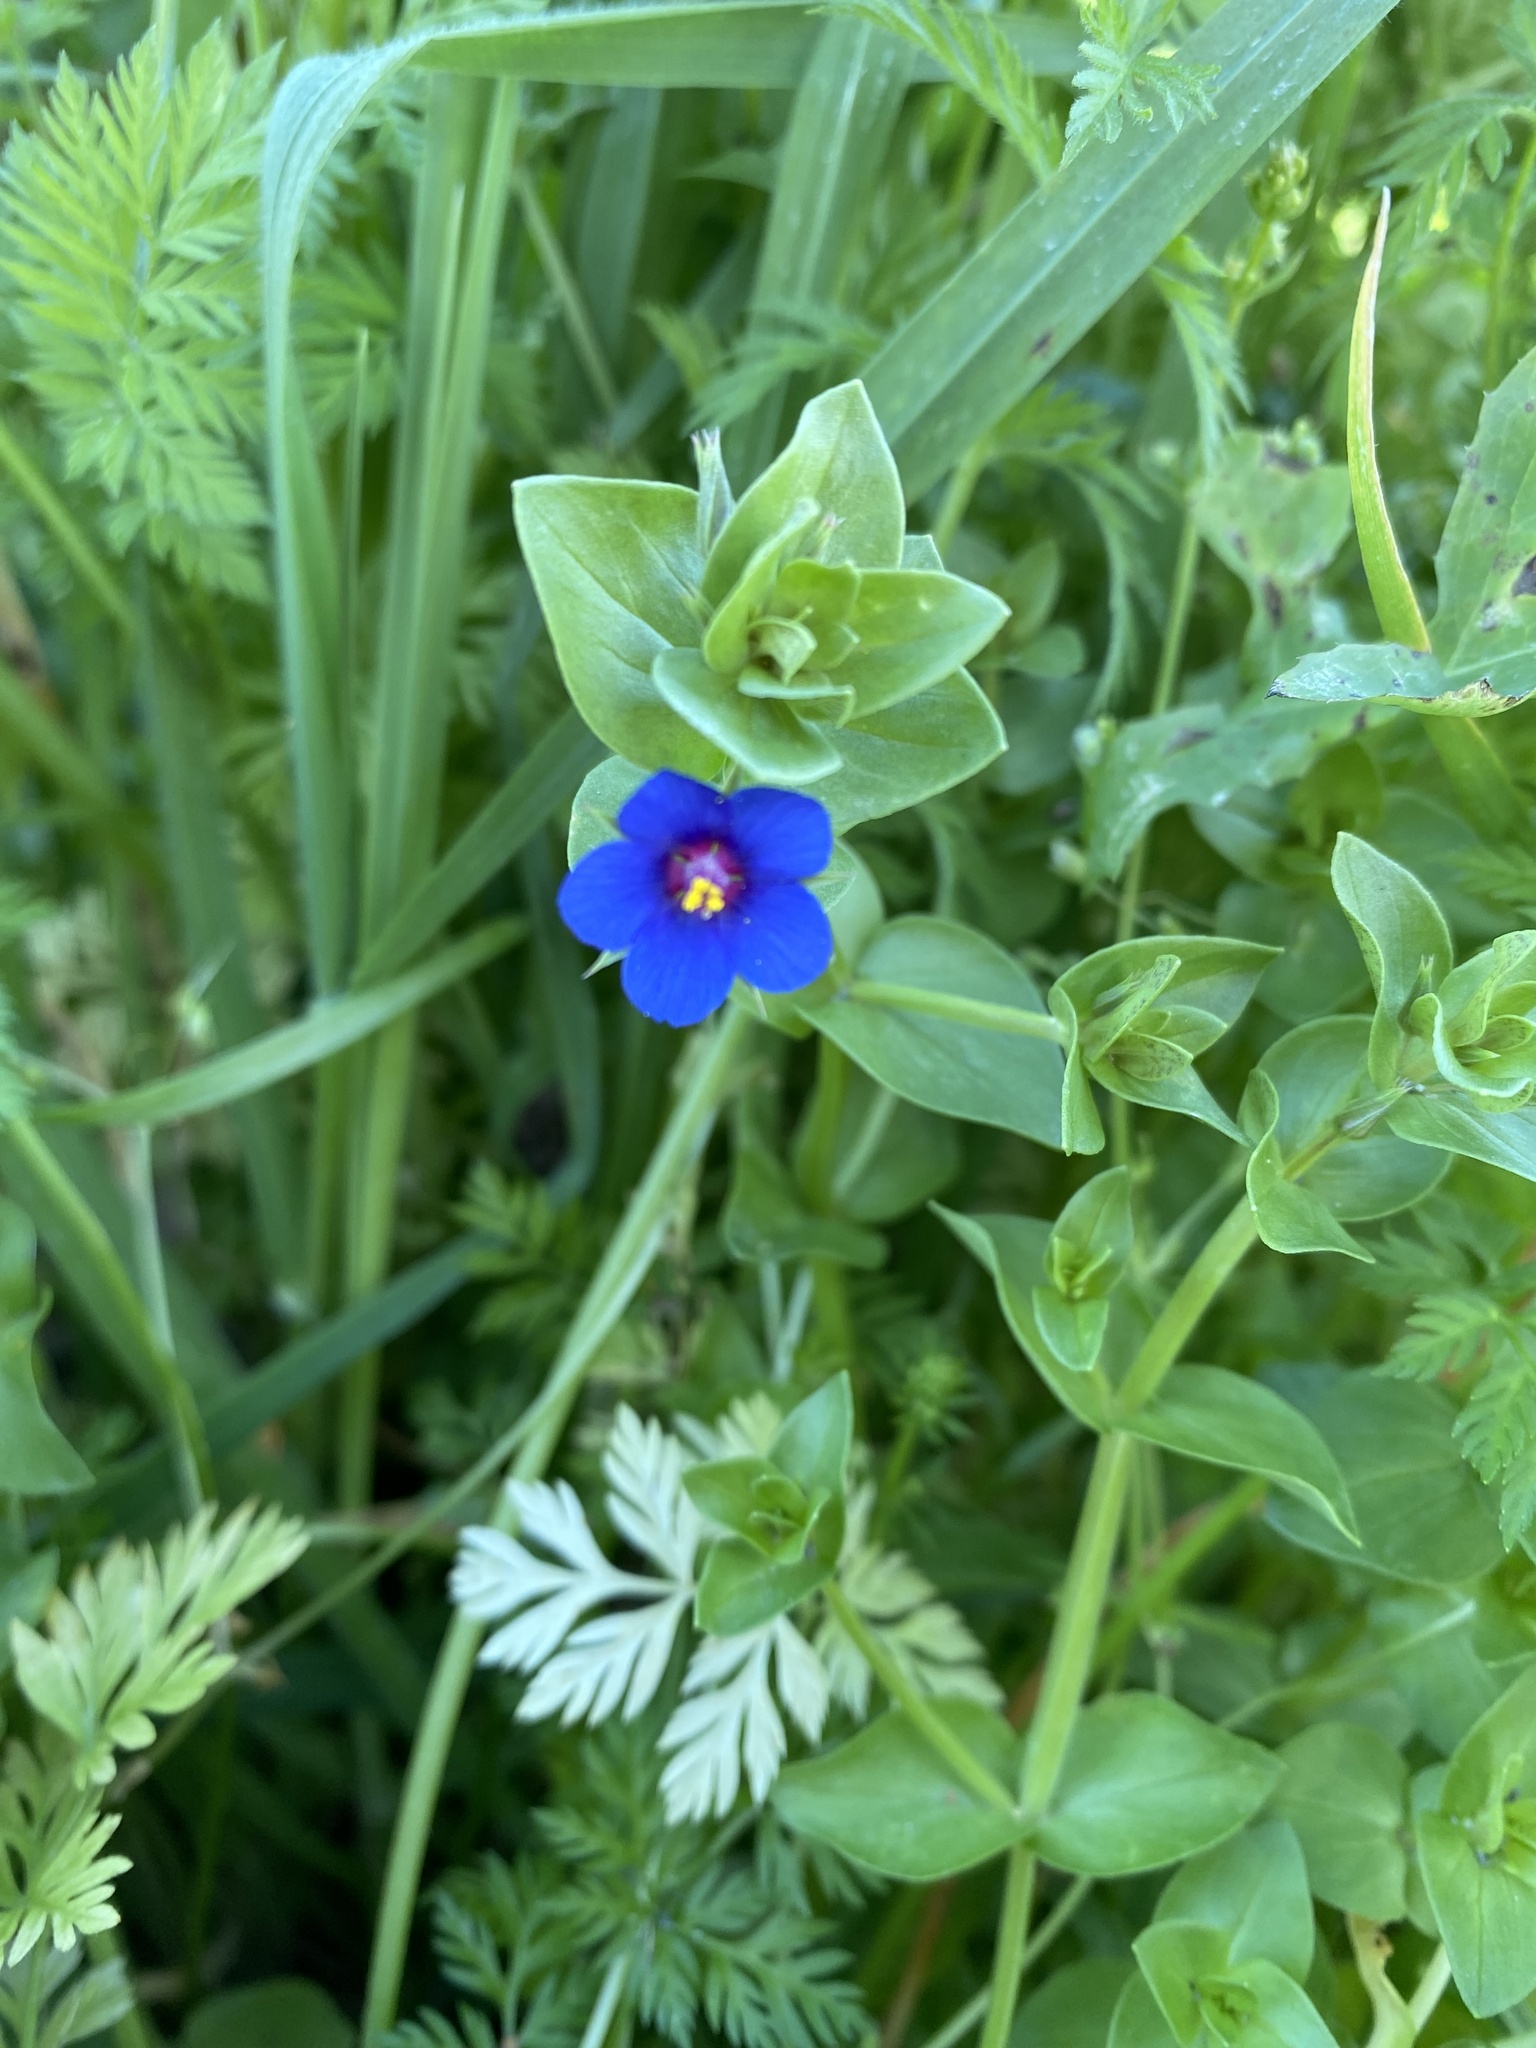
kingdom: Plantae
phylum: Tracheophyta
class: Magnoliopsida
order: Ericales
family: Primulaceae
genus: Lysimachia
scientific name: Lysimachia loeflingii
